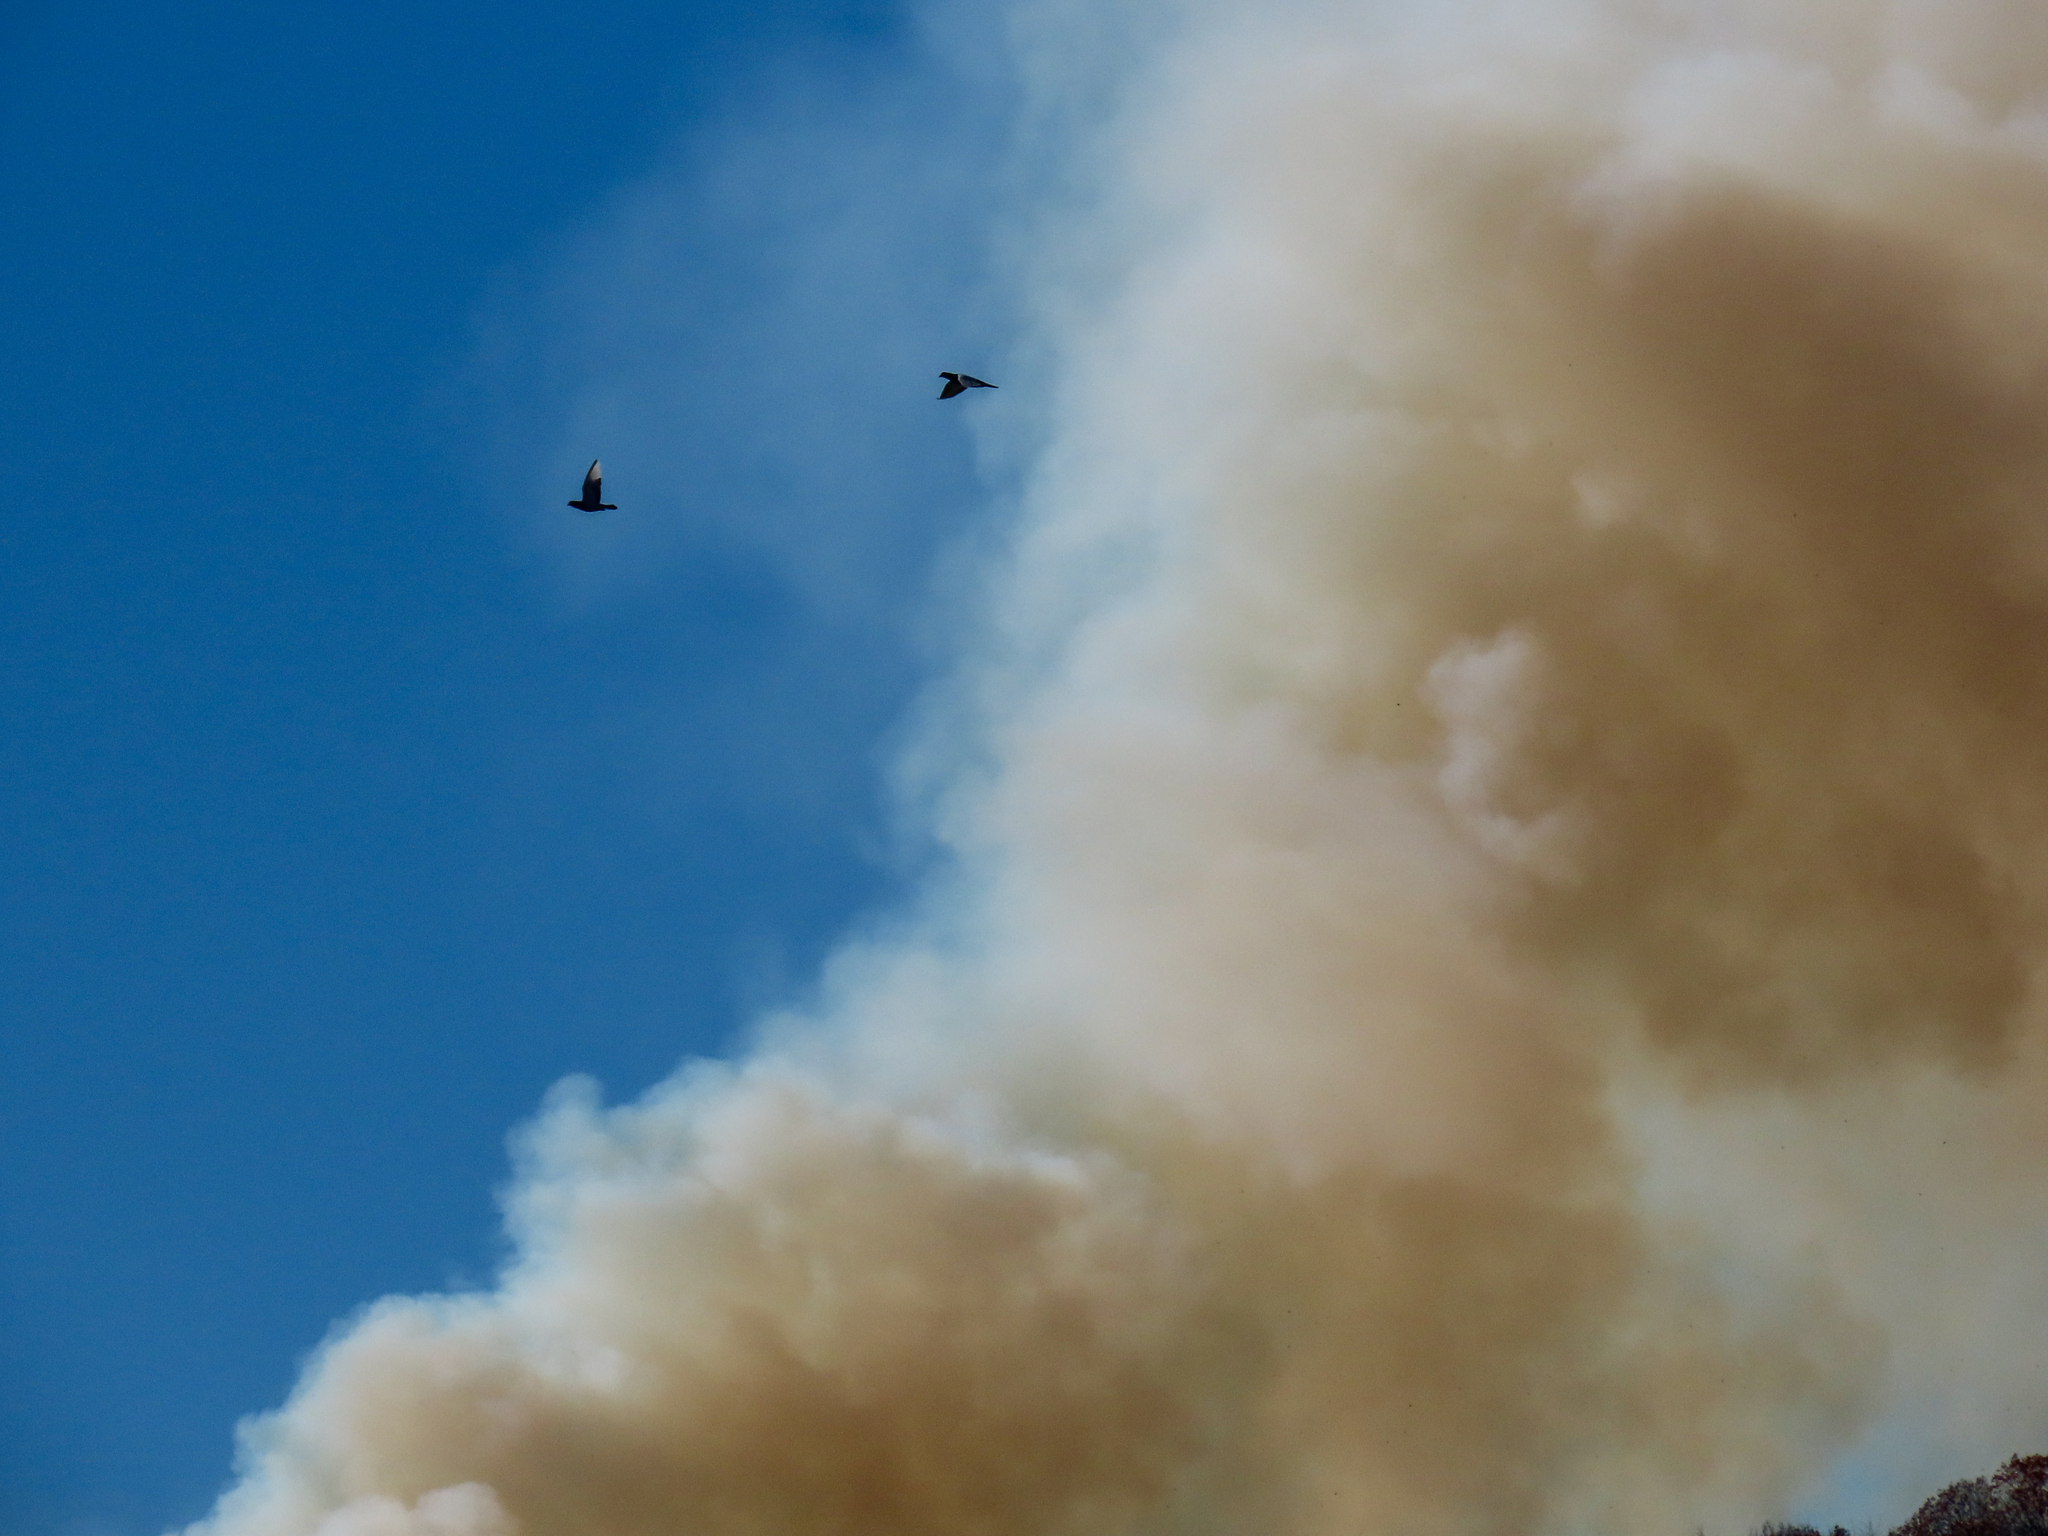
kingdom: Animalia
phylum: Chordata
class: Aves
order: Columbiformes
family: Columbidae
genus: Columba
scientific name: Columba livia
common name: Rock pigeon
